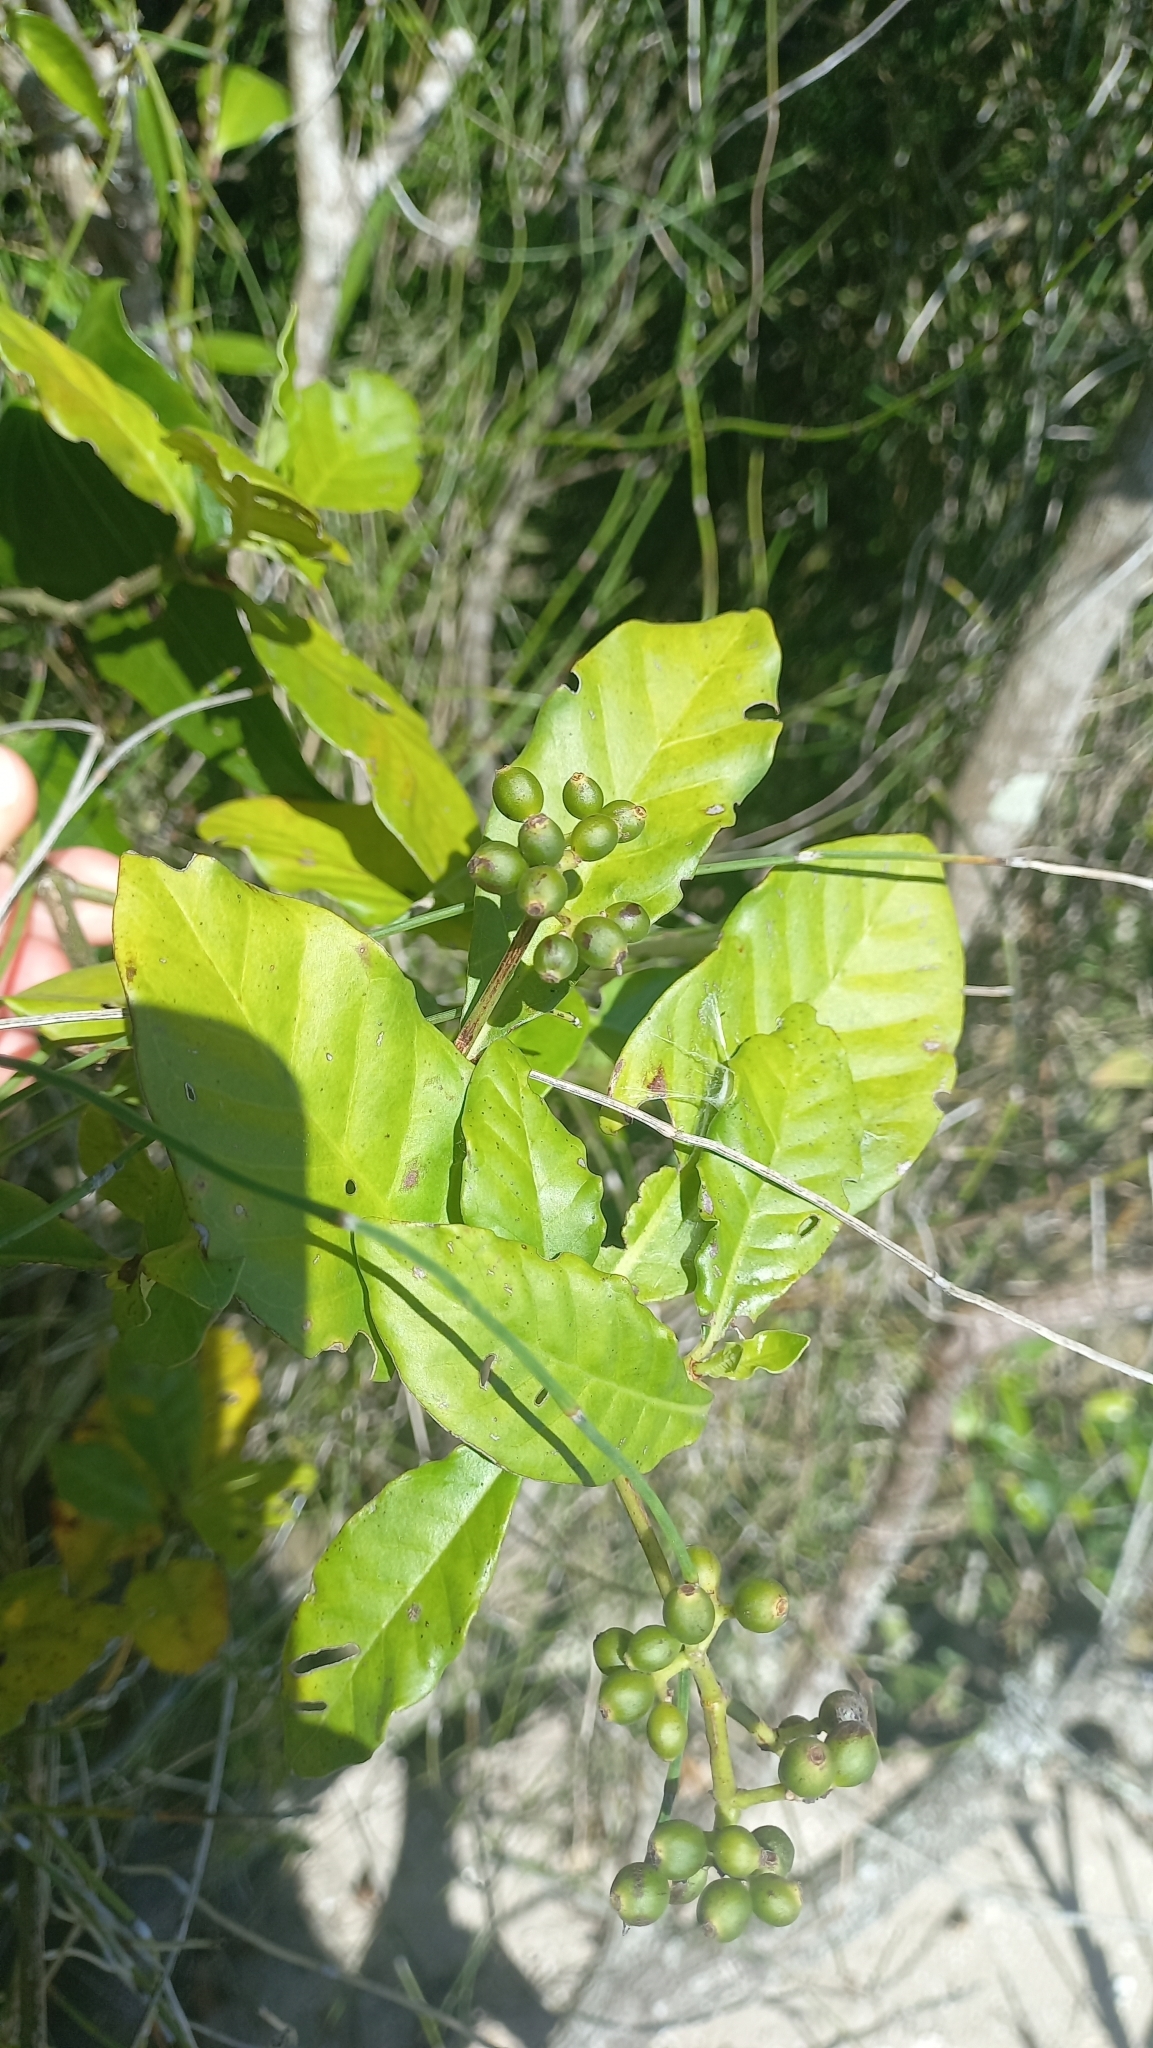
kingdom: Plantae
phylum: Tracheophyta
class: Magnoliopsida
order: Gentianales
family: Rubiaceae
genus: Psychotria
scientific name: Psychotria carthagenensis
